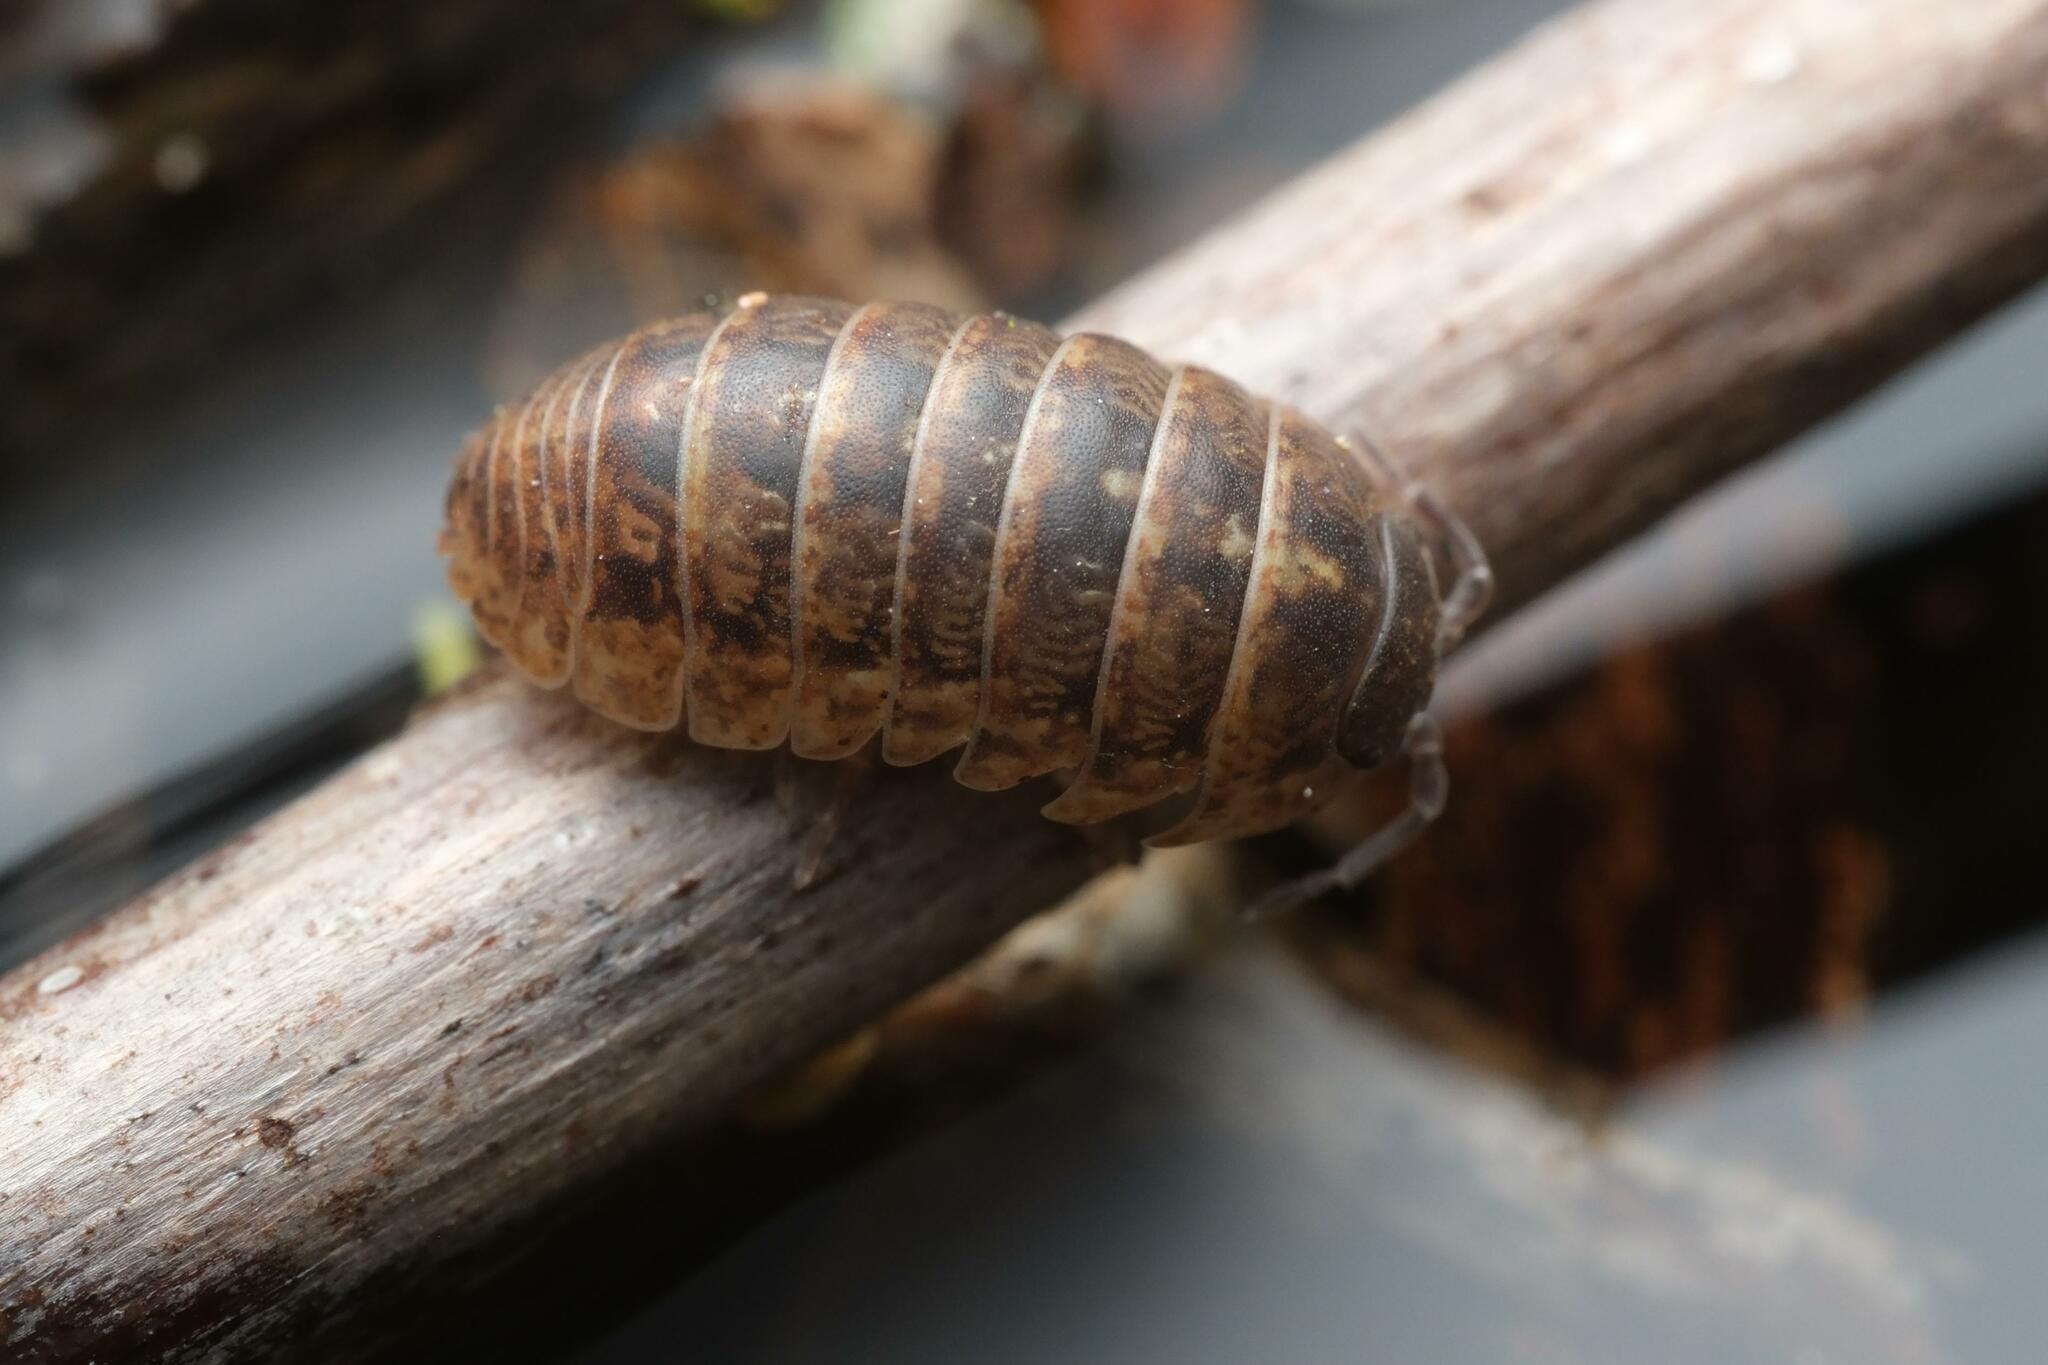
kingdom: Animalia
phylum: Arthropoda
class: Malacostraca
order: Isopoda
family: Armadillidiidae
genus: Armadillidium
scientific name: Armadillidium vulgare
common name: Common pill woodlouse
